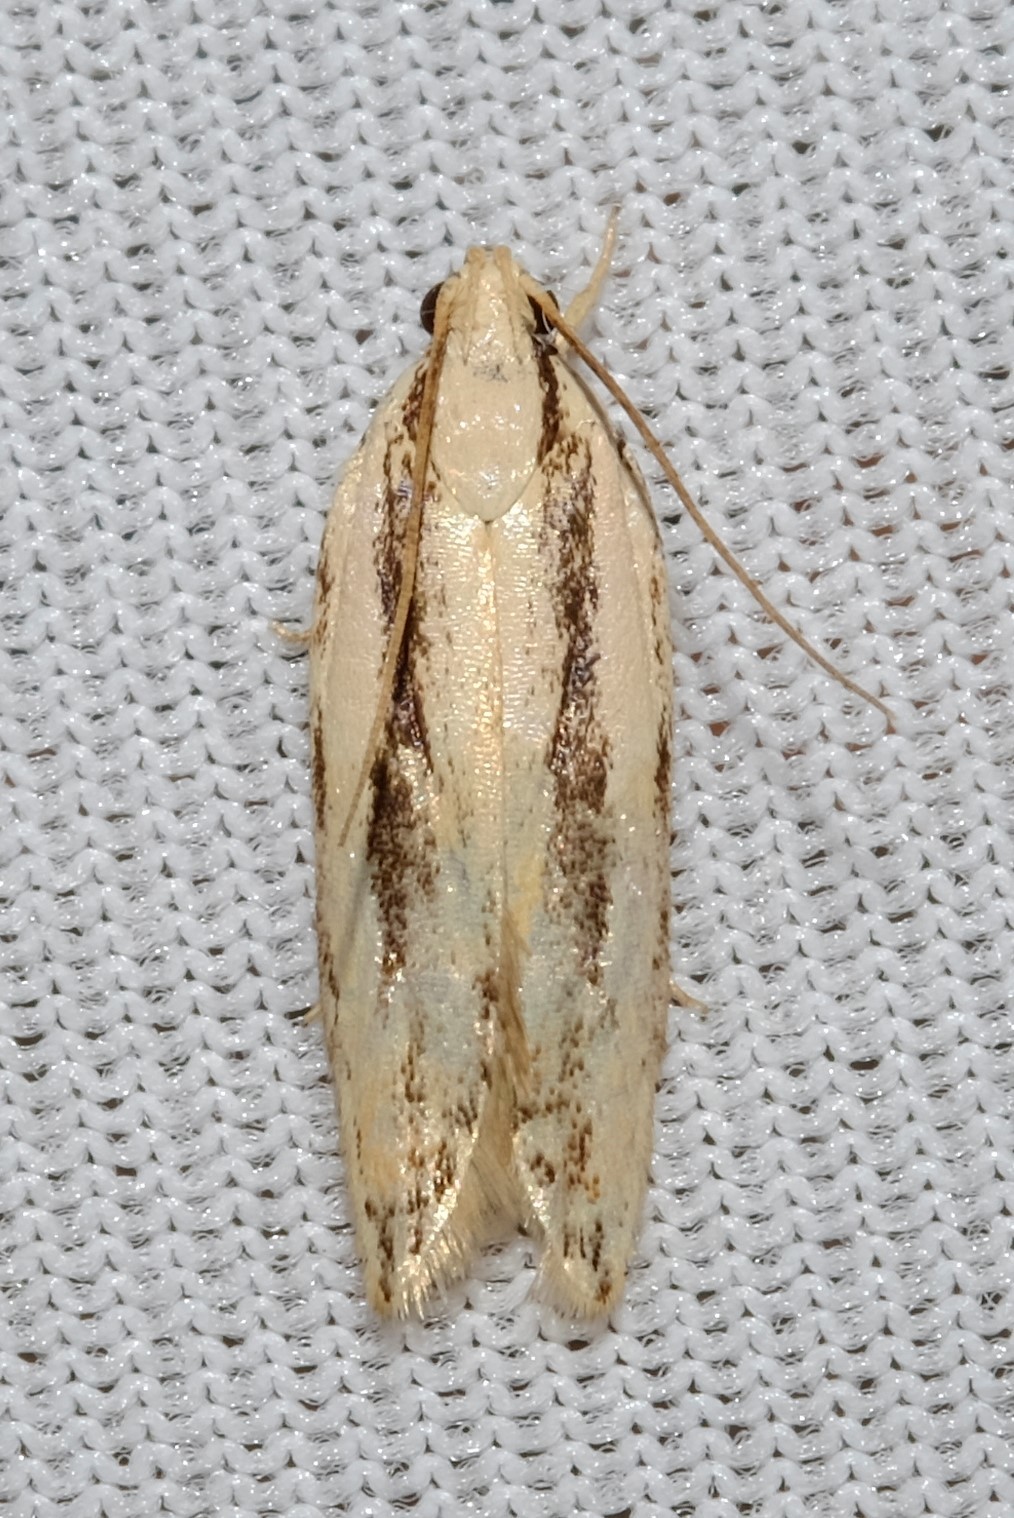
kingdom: Animalia
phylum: Arthropoda
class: Insecta
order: Lepidoptera
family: Gelechiidae
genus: Ardozyga
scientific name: Ardozyga chionoprora
